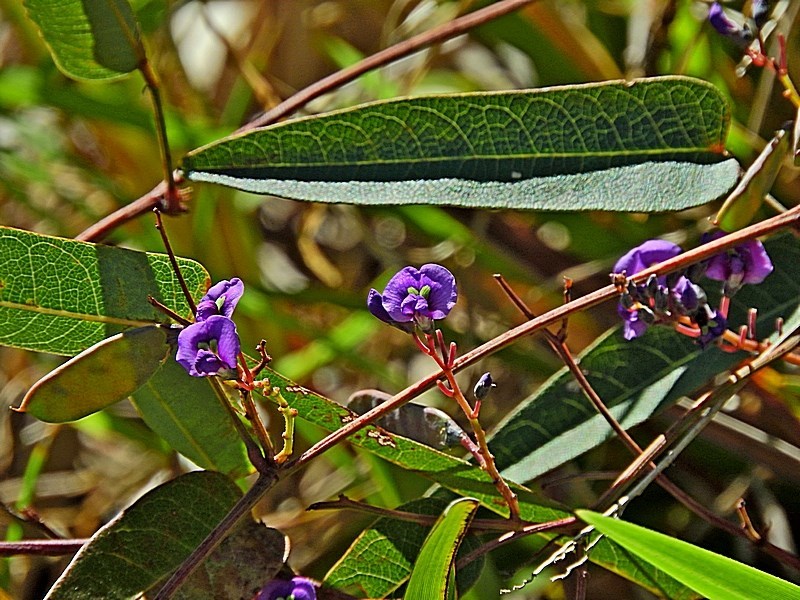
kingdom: Plantae
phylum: Tracheophyta
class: Magnoliopsida
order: Fabales
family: Fabaceae
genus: Hardenbergia
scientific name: Hardenbergia violacea
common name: Coral-pea
